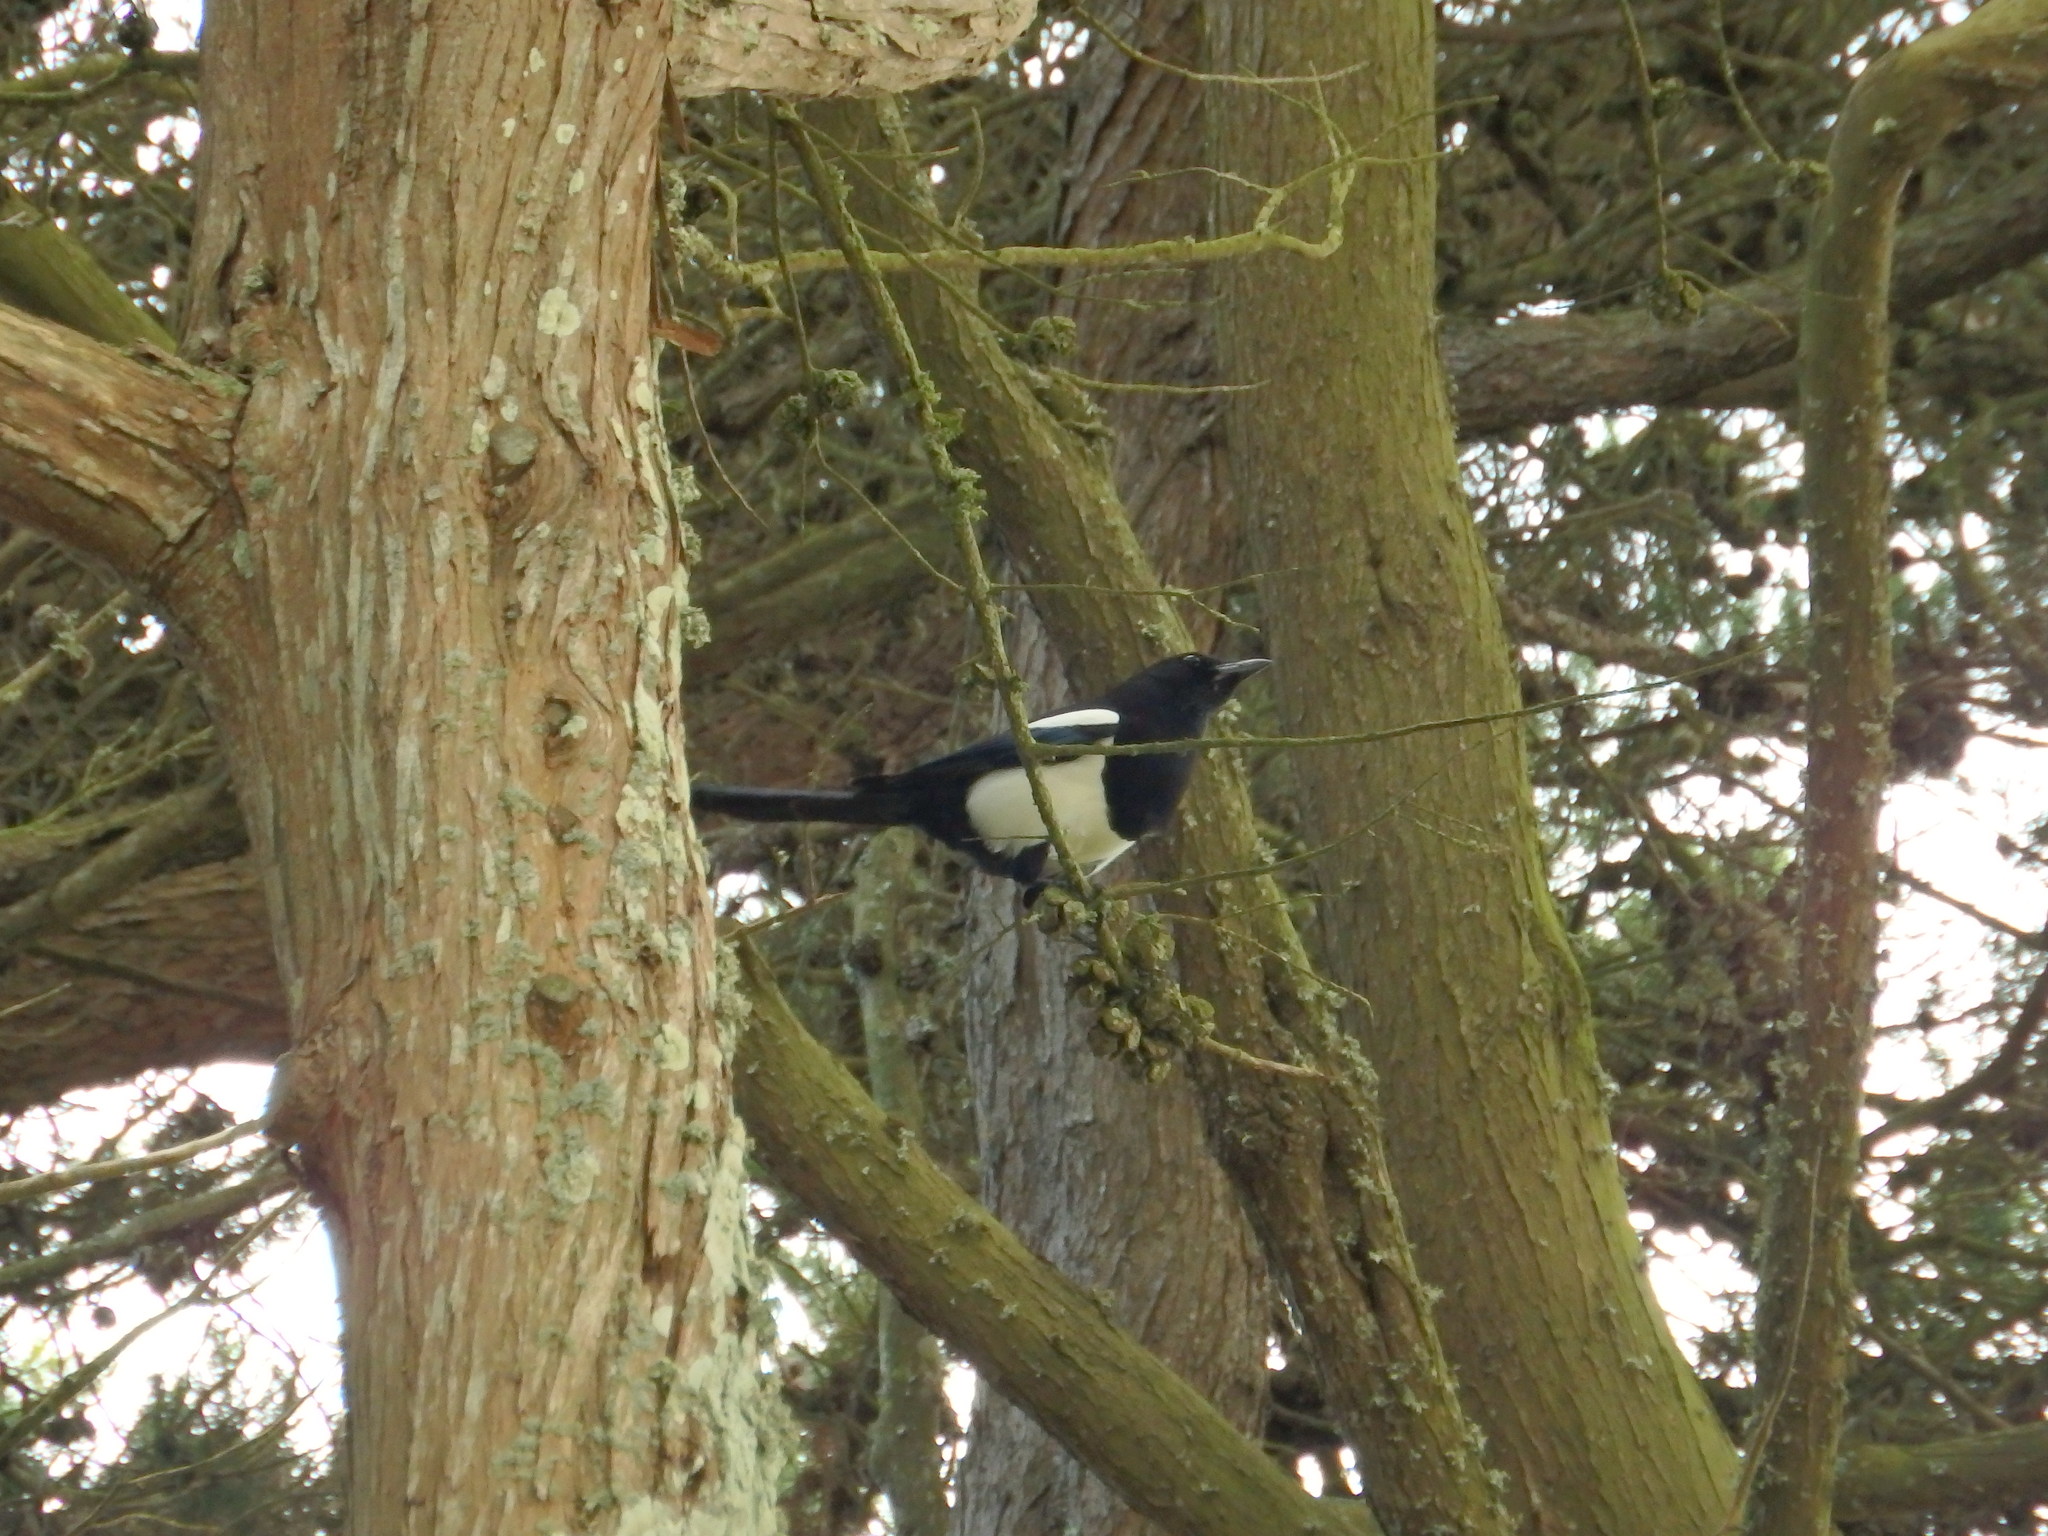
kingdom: Animalia
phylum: Chordata
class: Aves
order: Passeriformes
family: Corvidae
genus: Pica
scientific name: Pica pica
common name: Eurasian magpie
